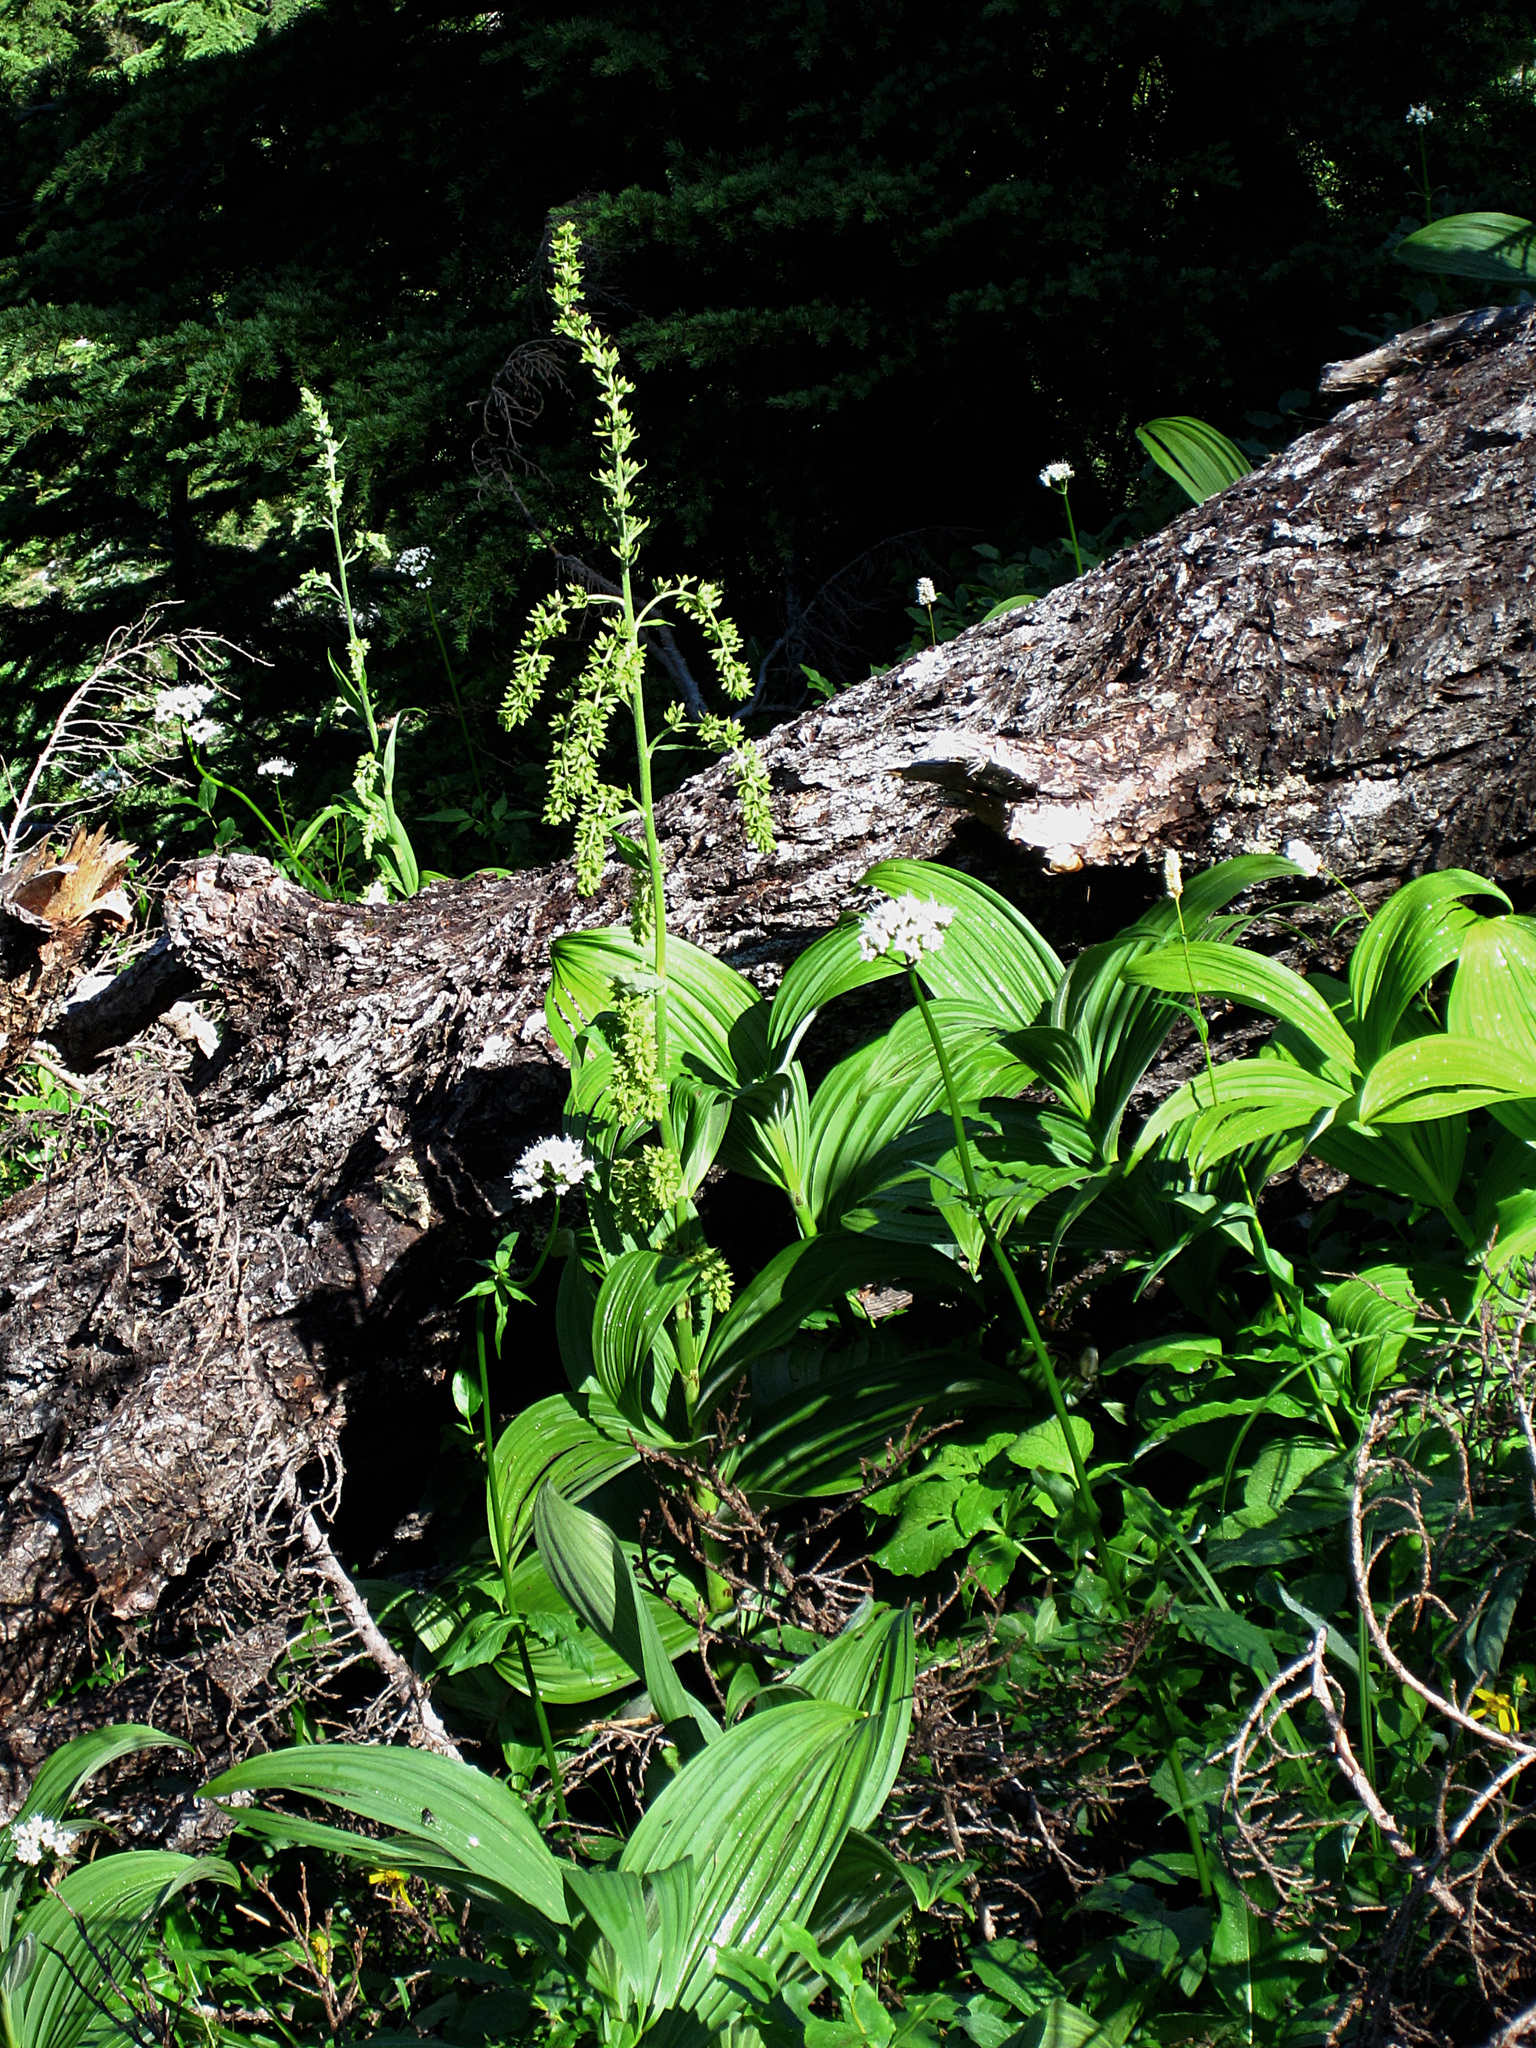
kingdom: Plantae
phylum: Tracheophyta
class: Liliopsida
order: Liliales
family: Melanthiaceae
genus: Veratrum
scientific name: Veratrum viride
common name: American false hellebore
